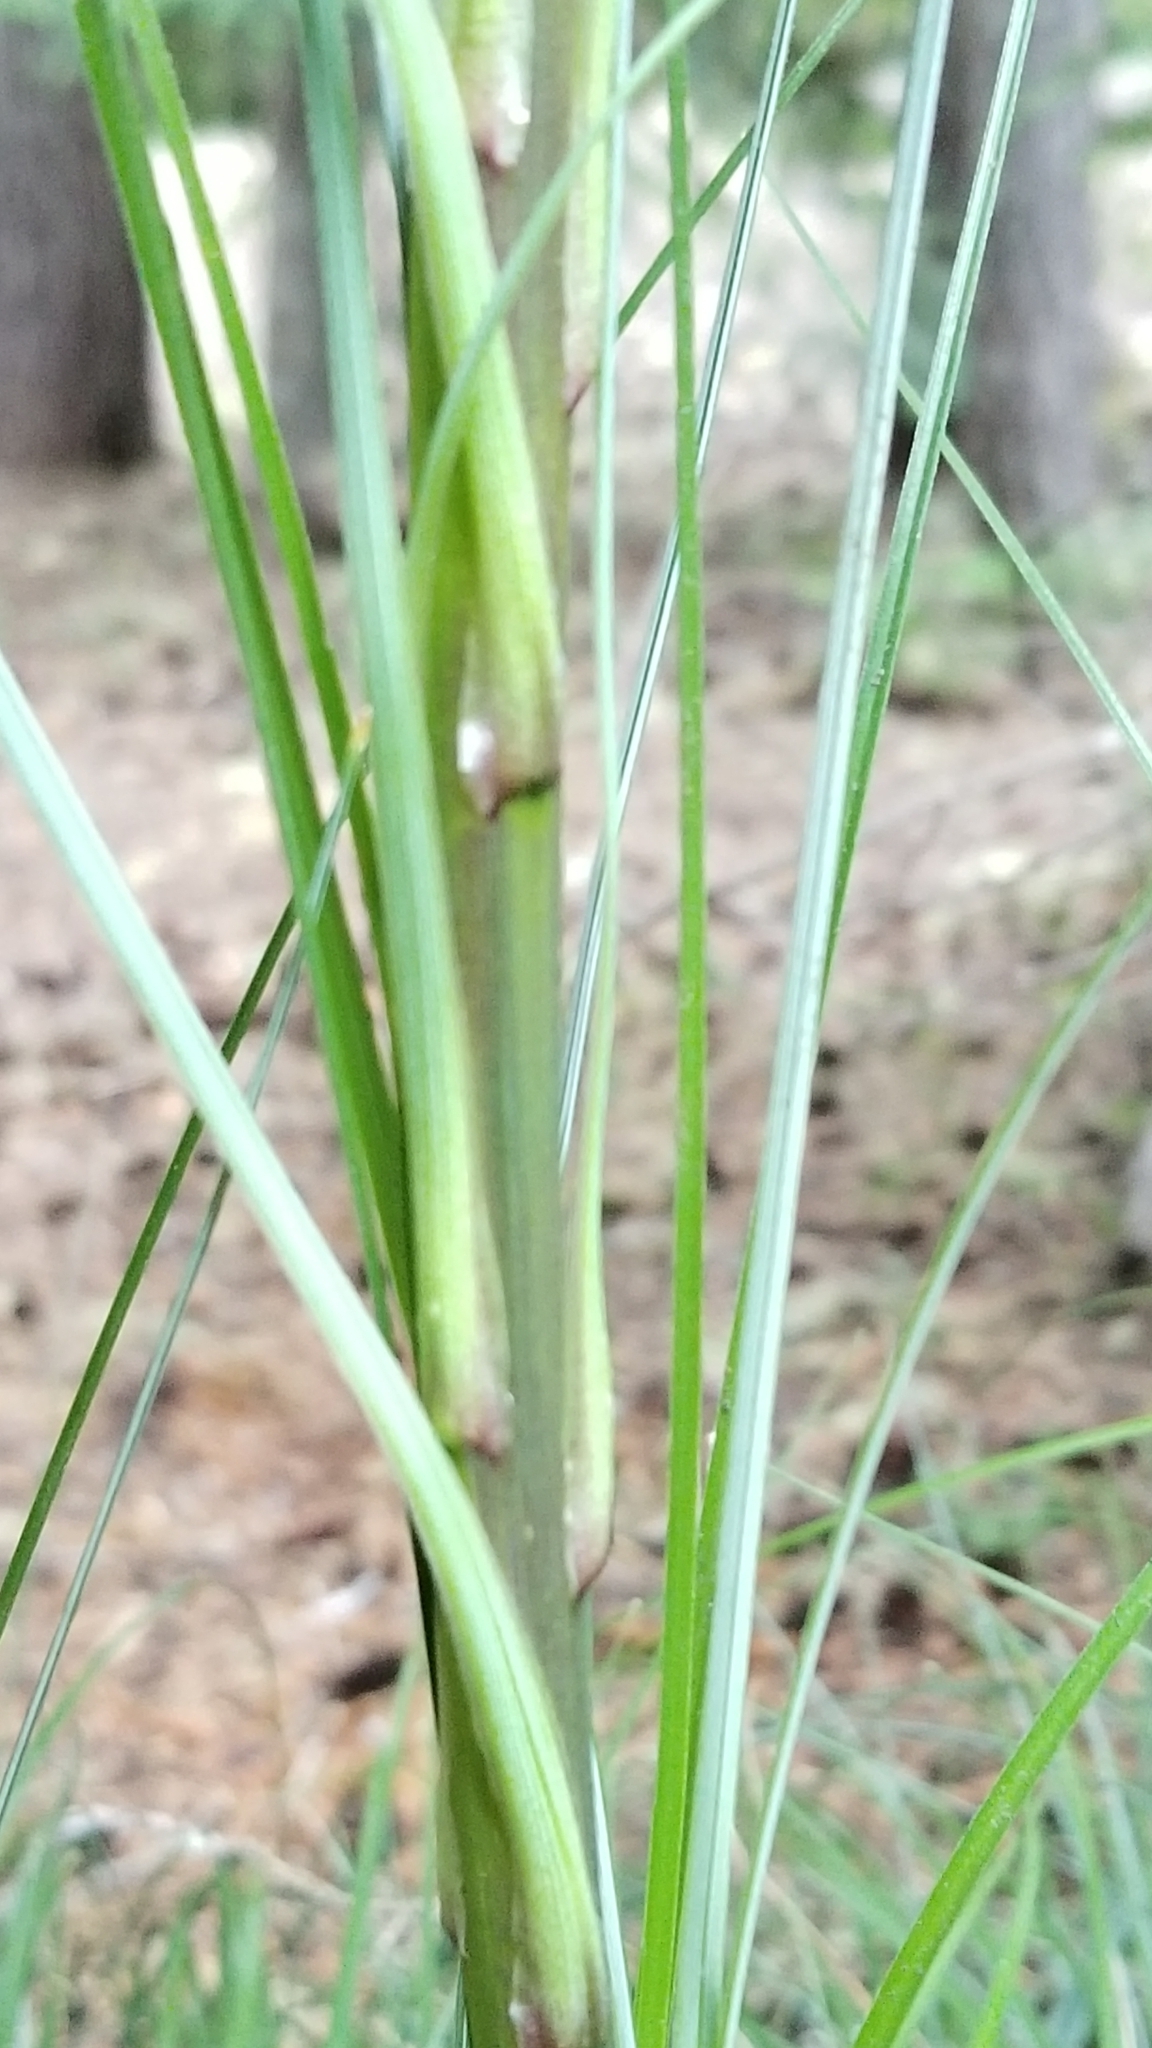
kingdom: Plantae
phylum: Tracheophyta
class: Liliopsida
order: Liliales
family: Melanthiaceae
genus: Xerophyllum
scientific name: Xerophyllum tenax
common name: Bear-grass
